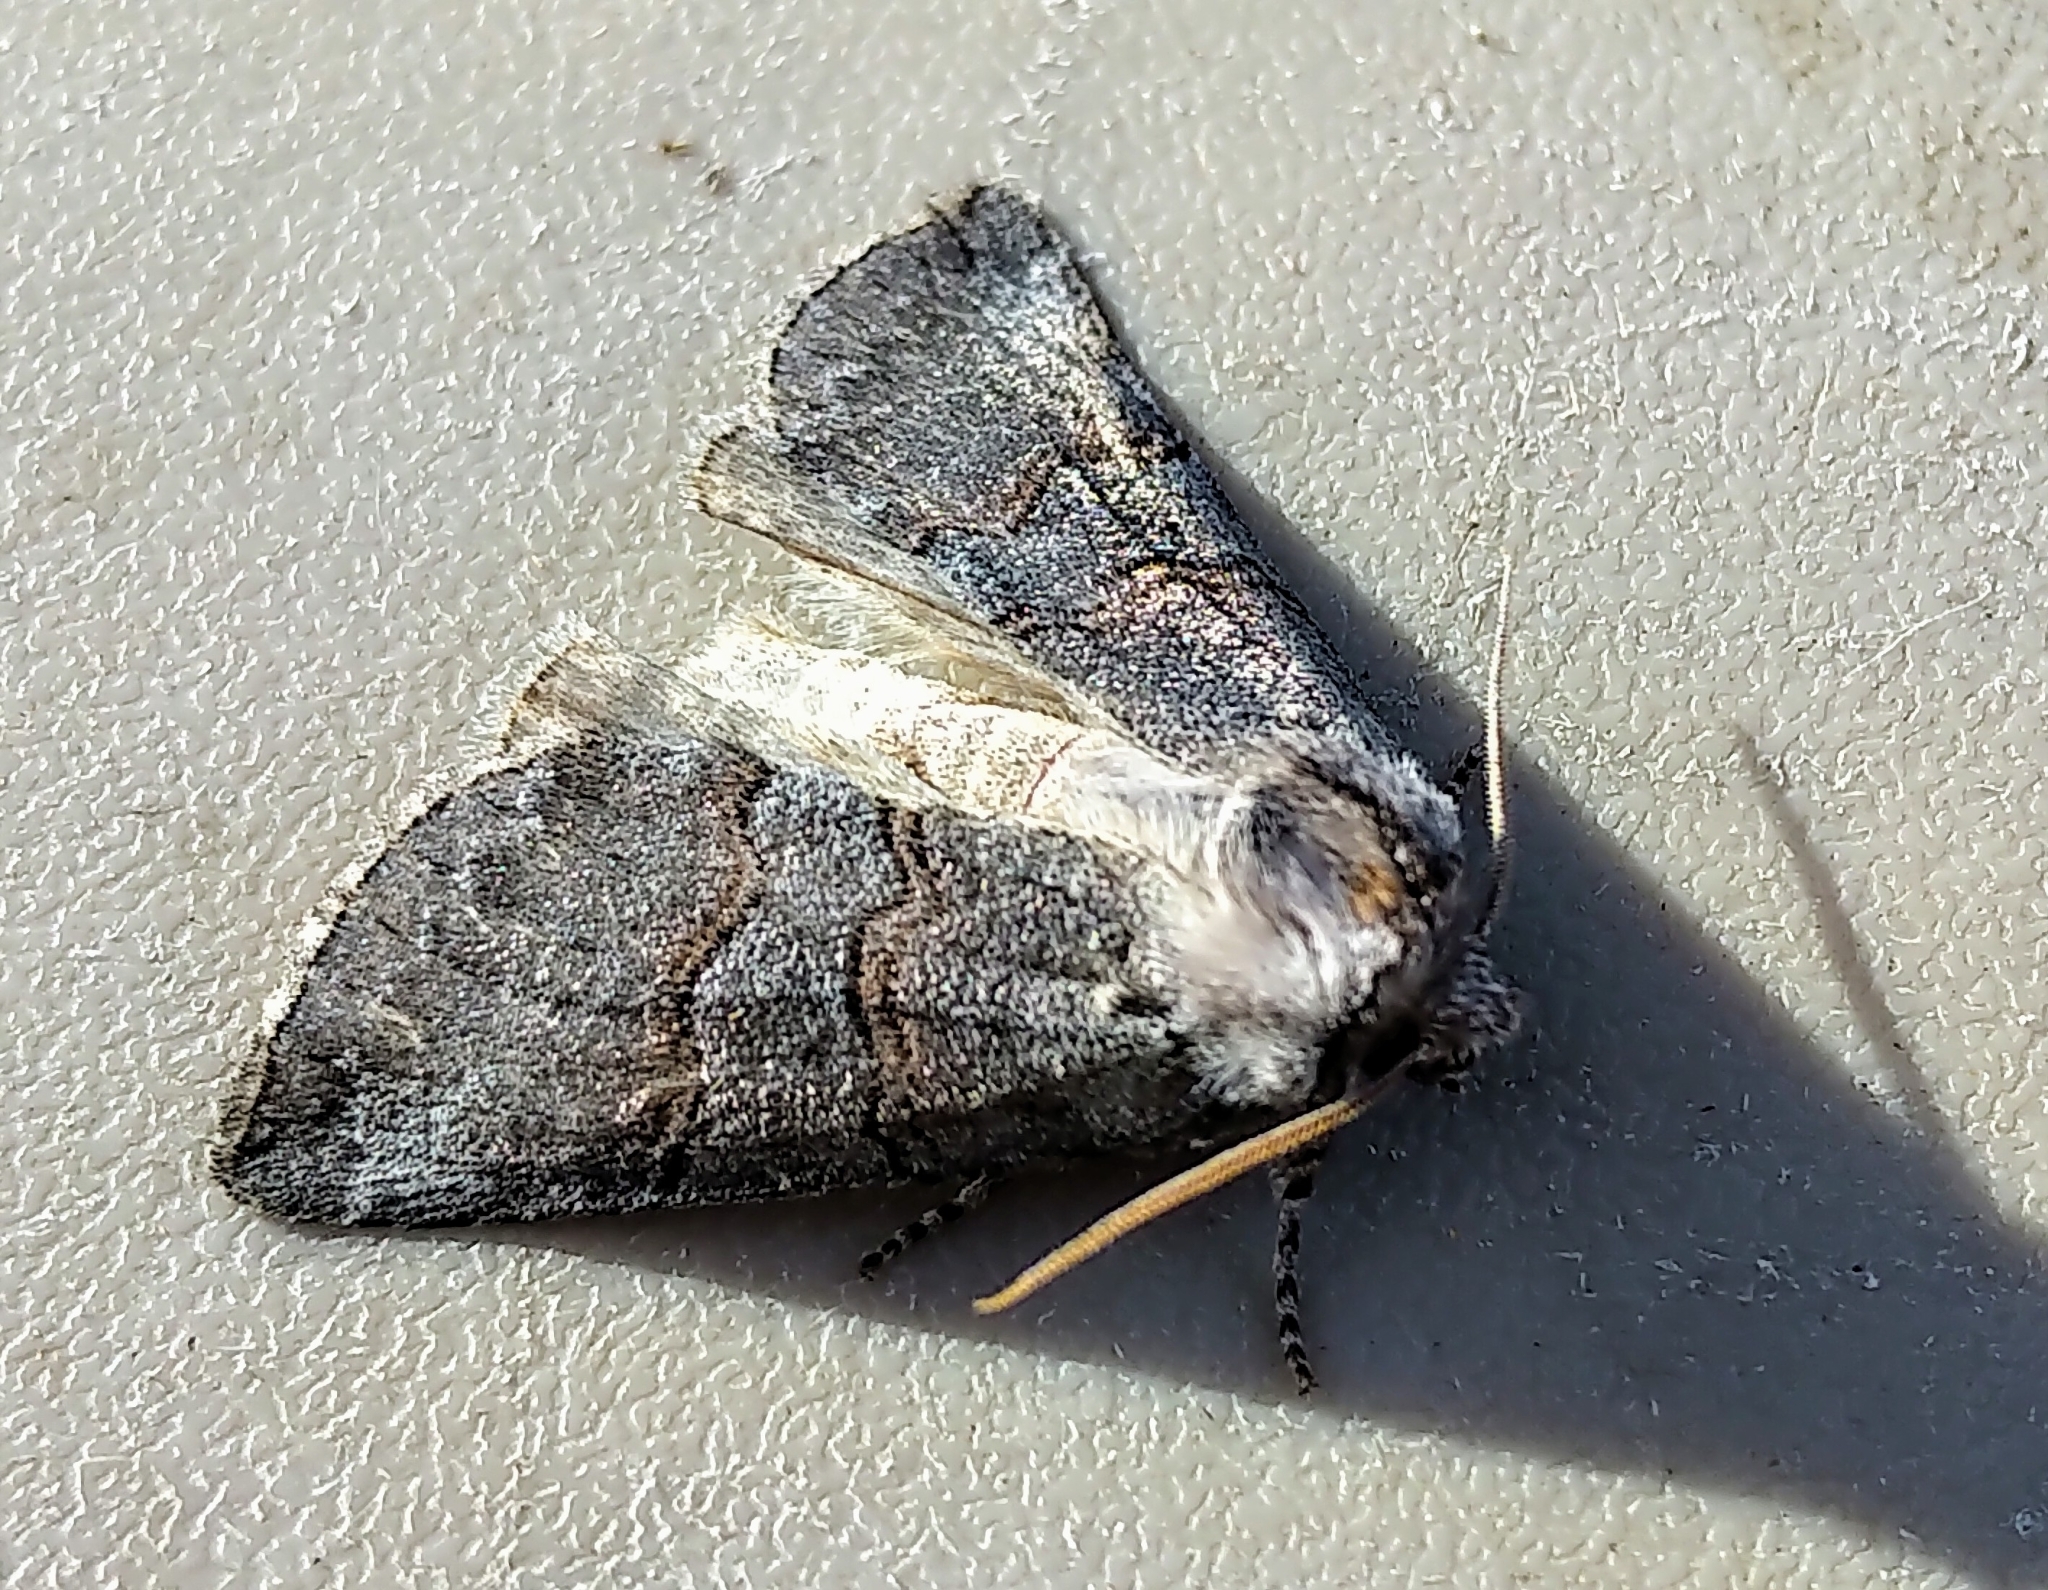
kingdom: Animalia
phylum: Arthropoda
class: Insecta
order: Lepidoptera
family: Drepanidae
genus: Ceranemota
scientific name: Ceranemota albertae
